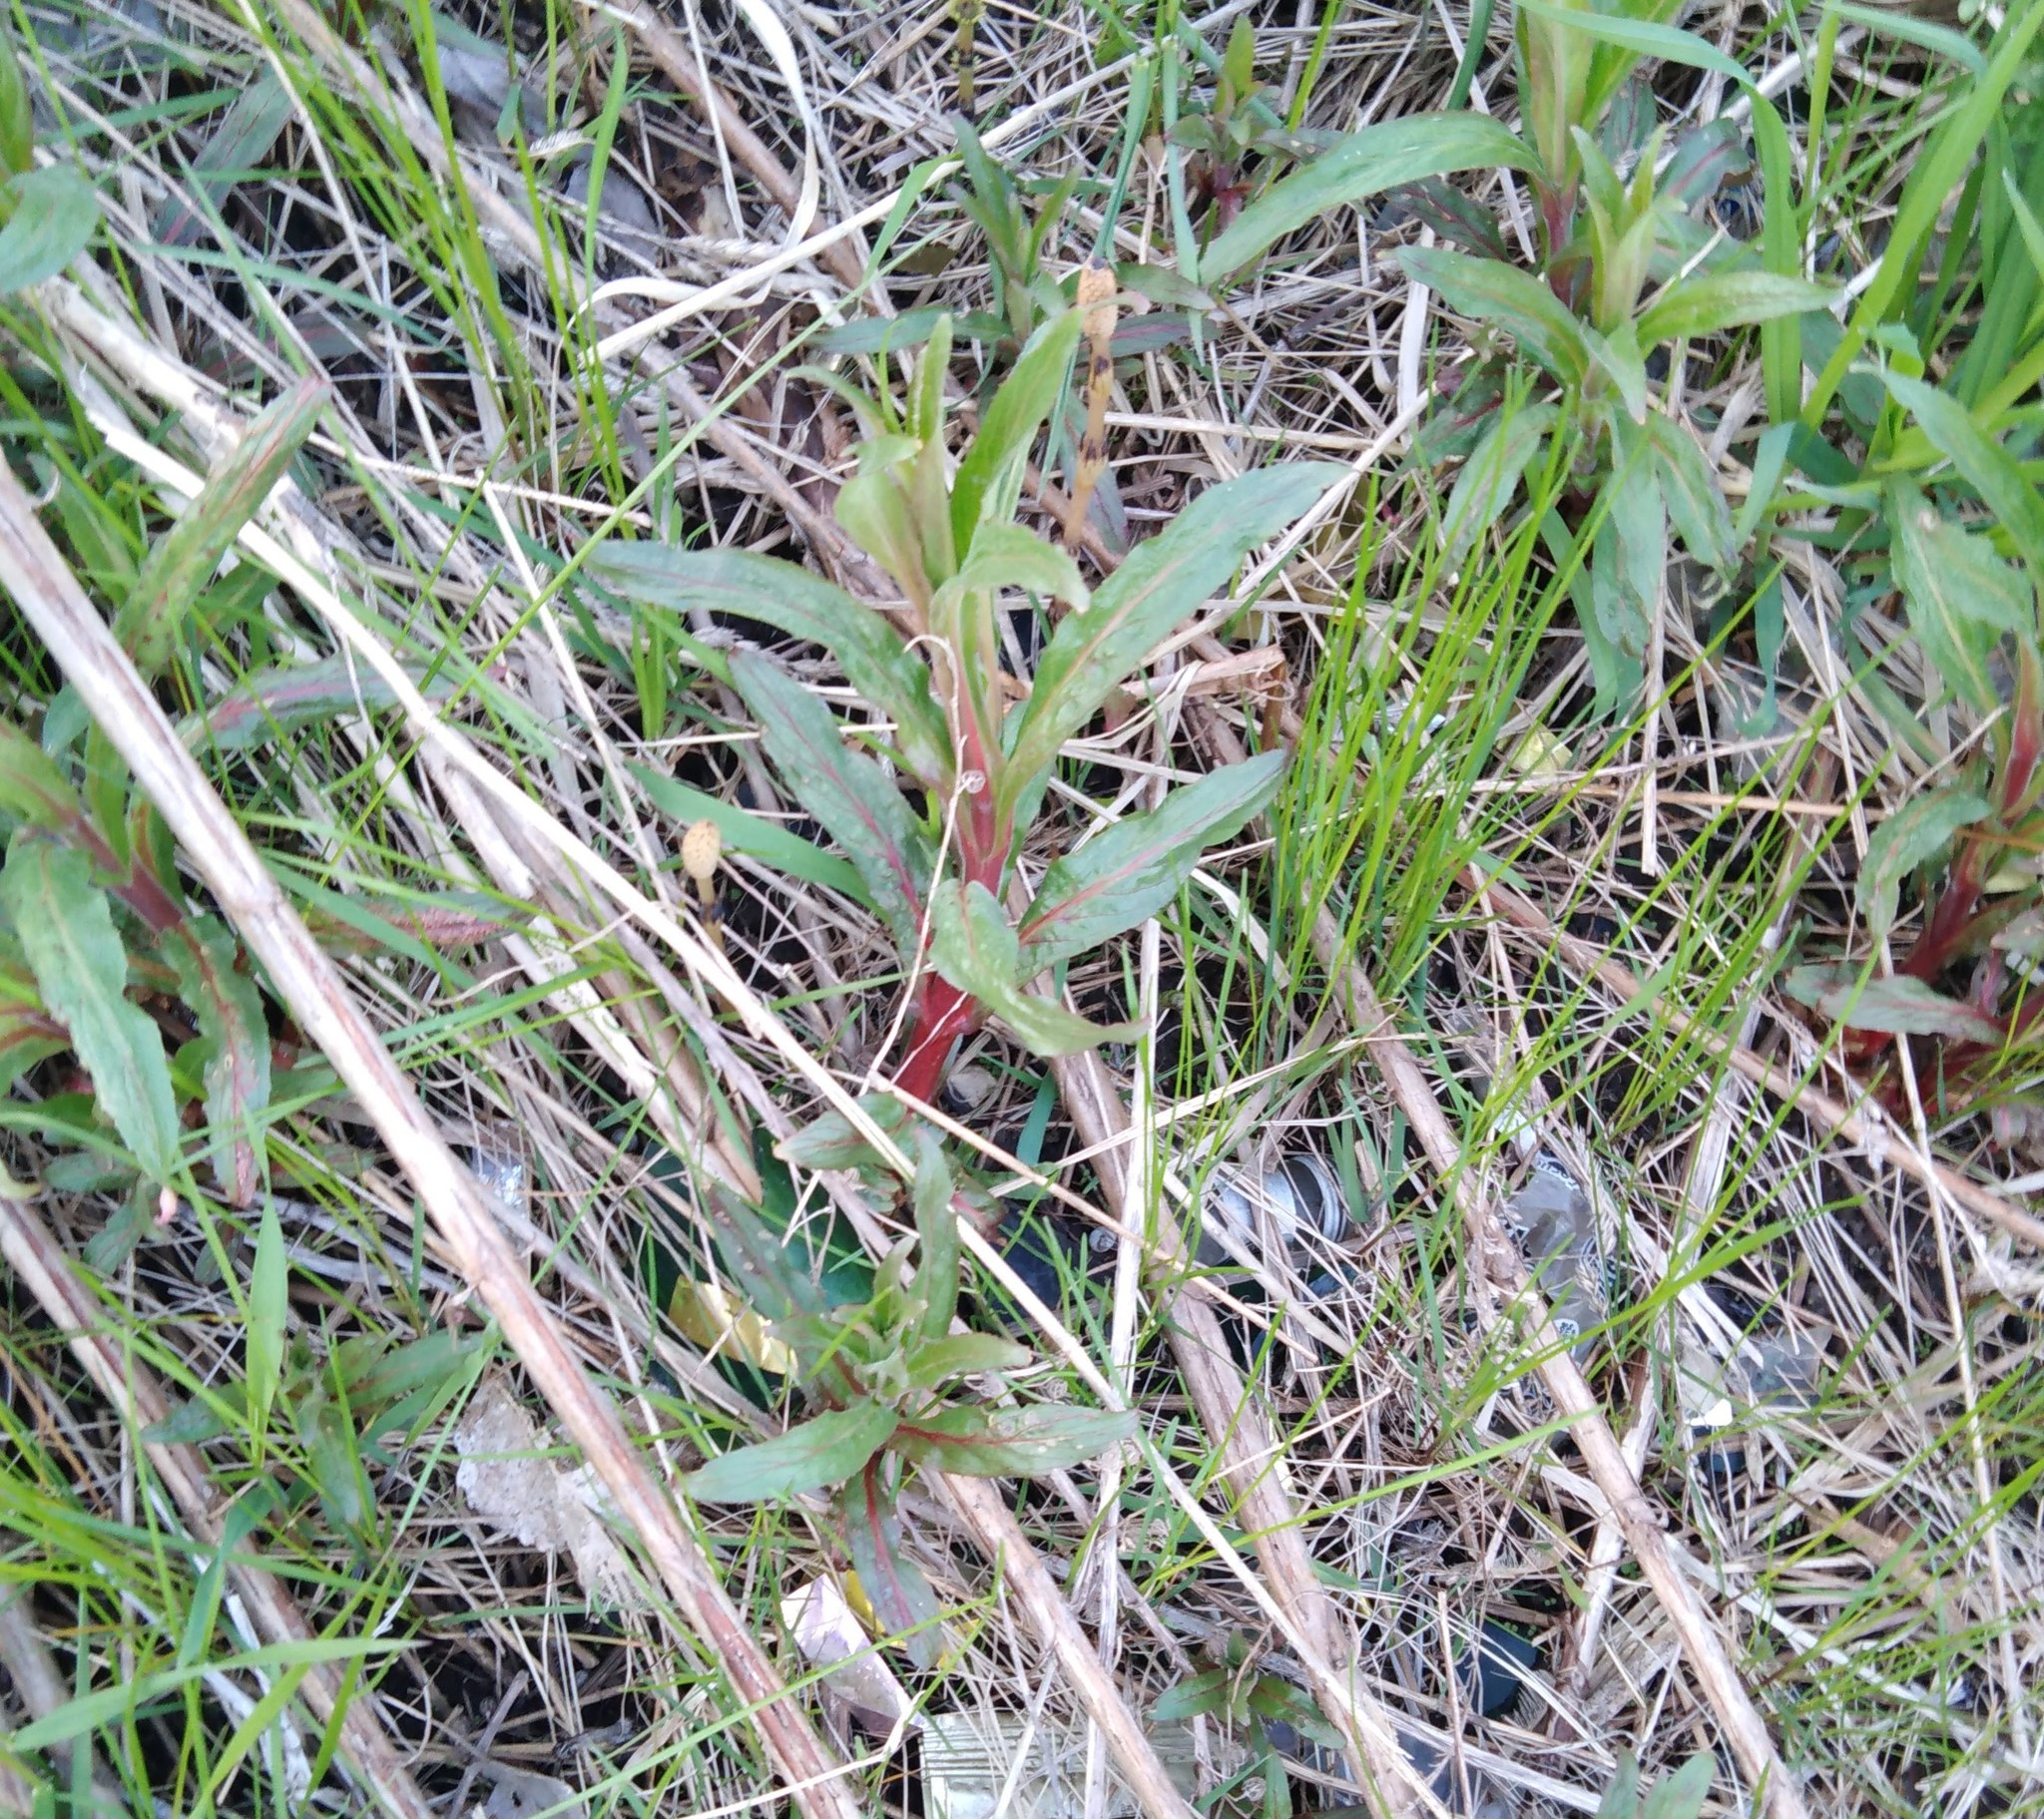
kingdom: Plantae
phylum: Tracheophyta
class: Magnoliopsida
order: Myrtales
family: Onagraceae
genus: Epilobium
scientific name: Epilobium hirsutum
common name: Great willowherb
